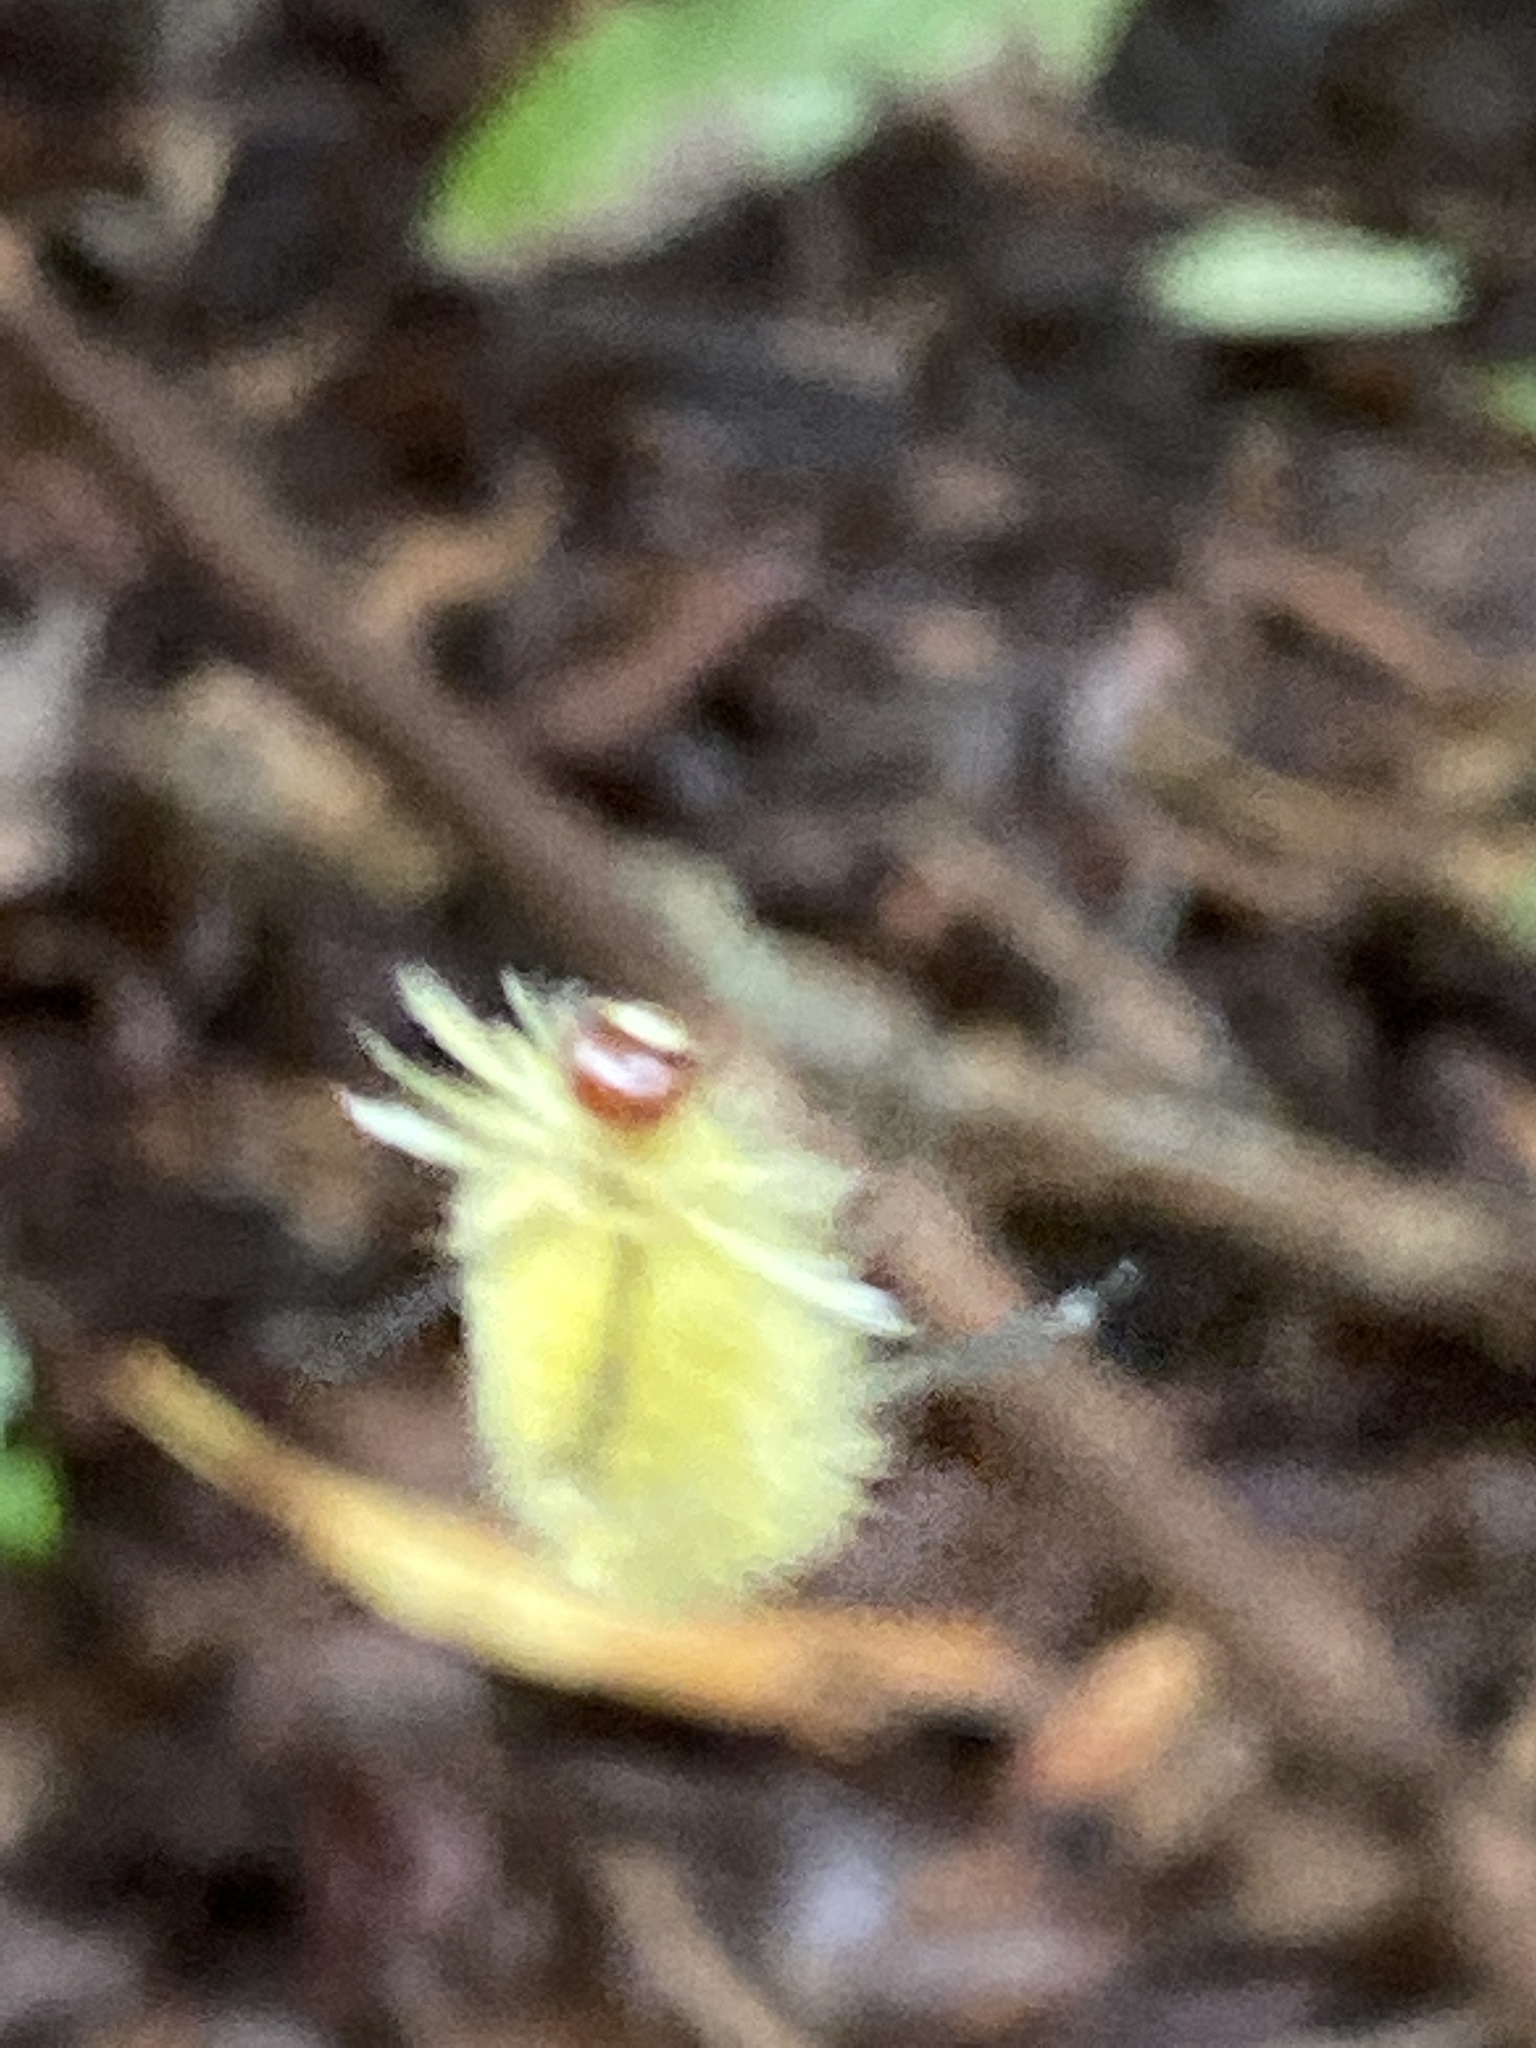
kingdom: Animalia
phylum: Arthropoda
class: Insecta
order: Lepidoptera
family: Erebidae
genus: Halysidota
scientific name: Halysidota tessellaris
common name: Banded tussock moth
